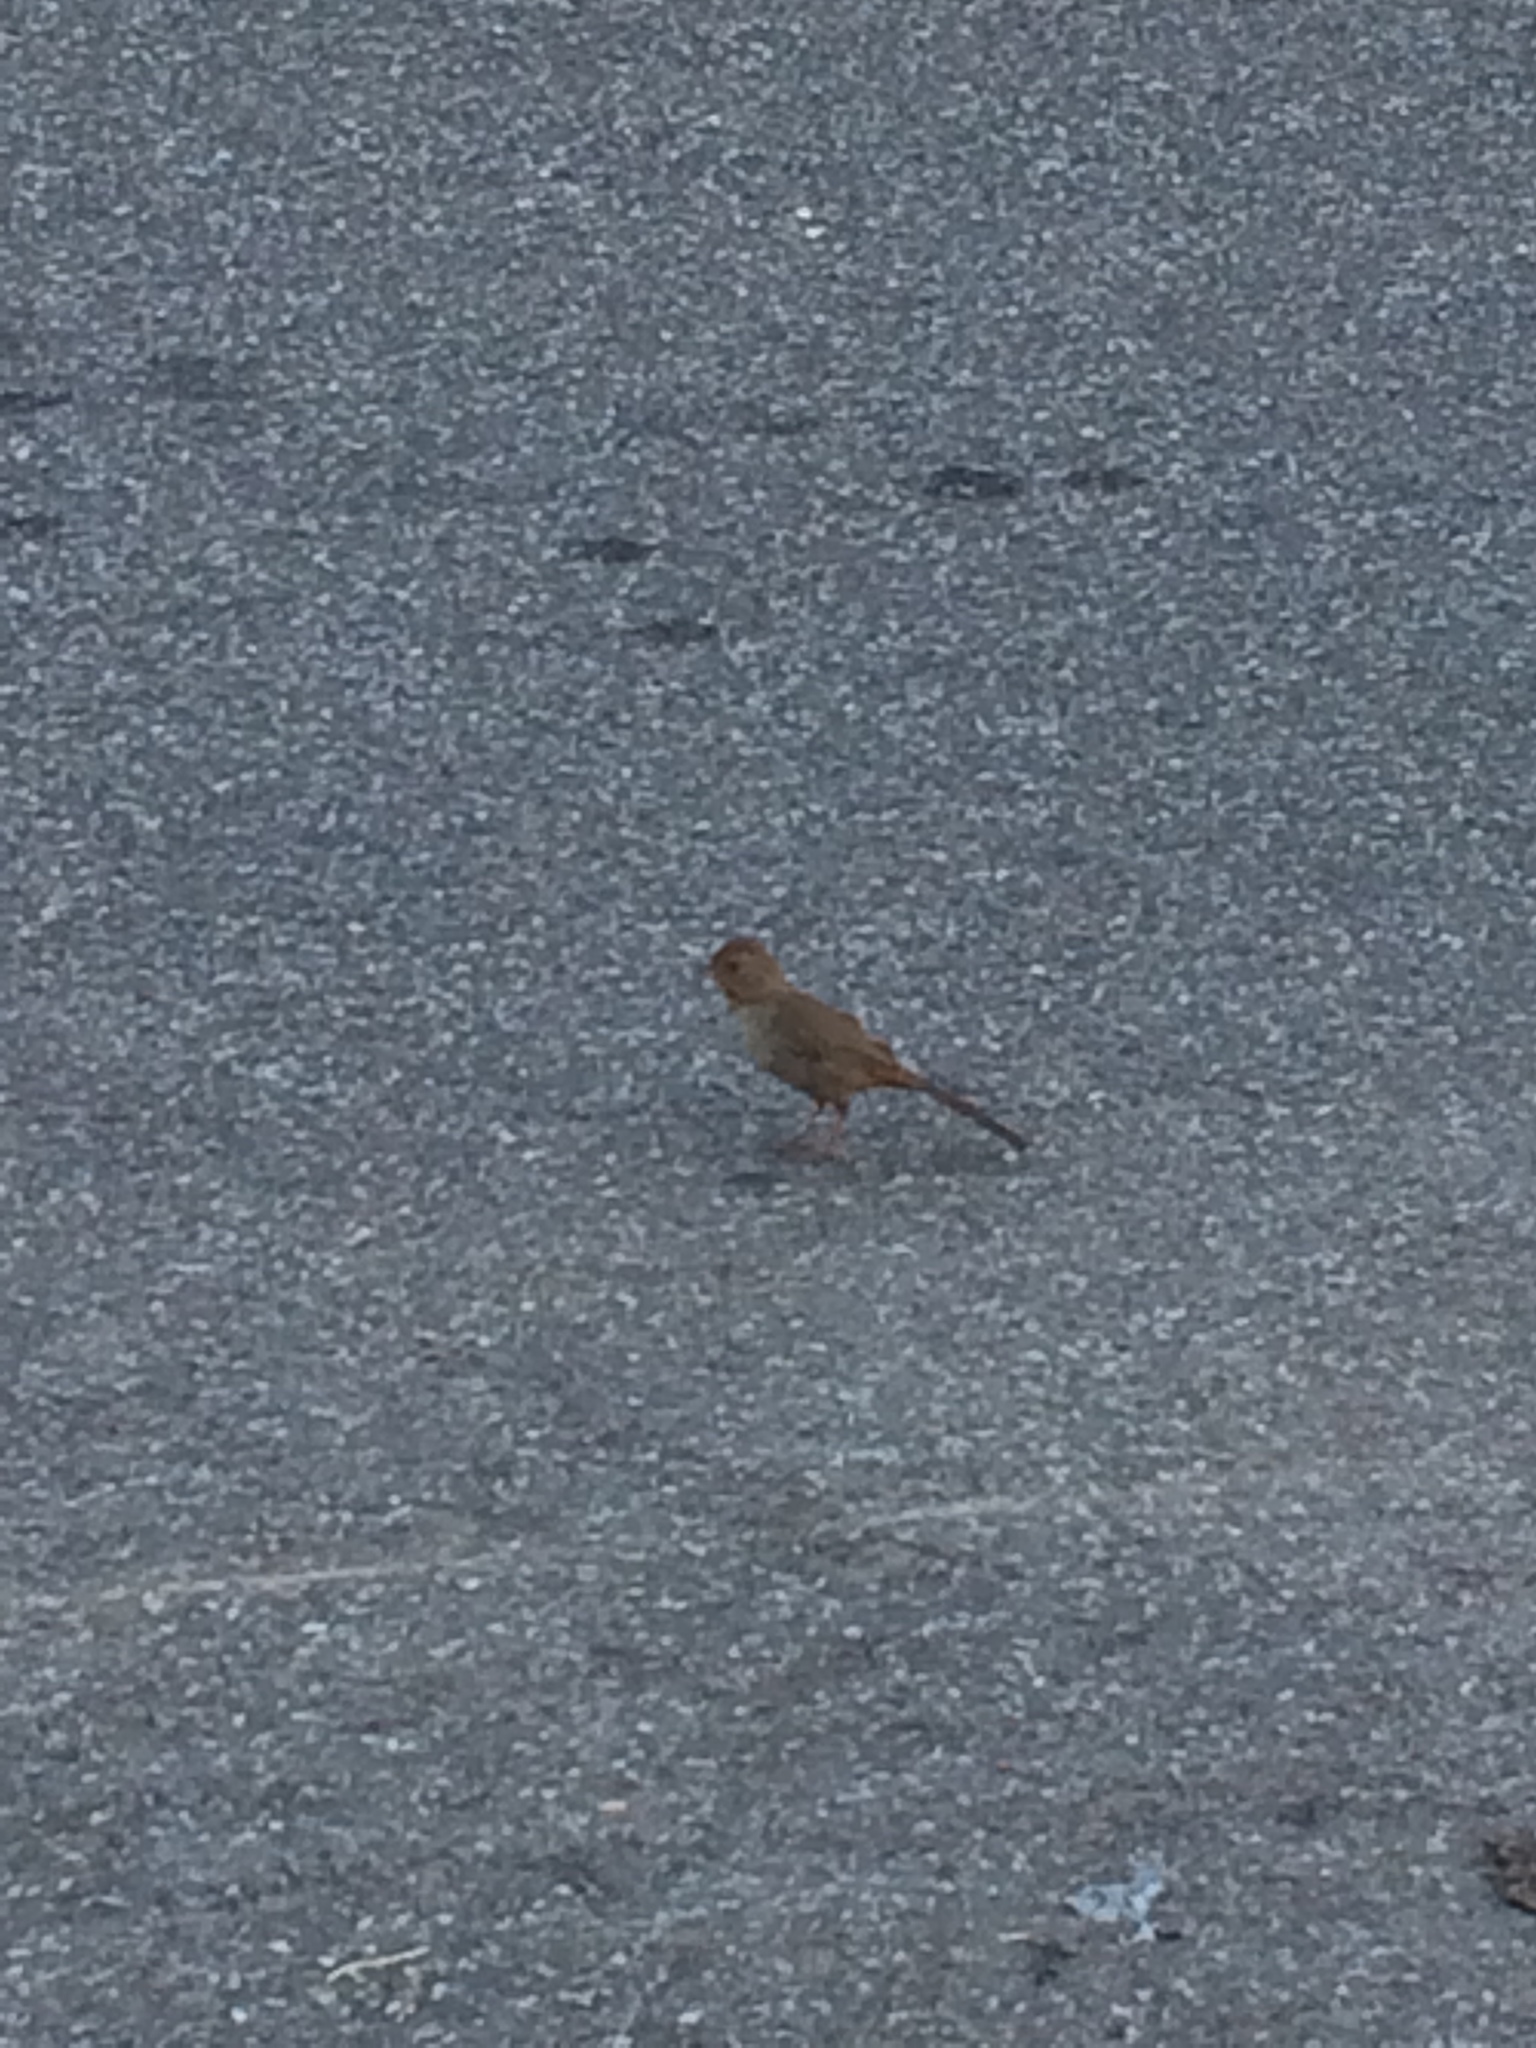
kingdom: Animalia
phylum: Chordata
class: Aves
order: Passeriformes
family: Passerellidae
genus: Melozone
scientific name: Melozone crissalis
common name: California towhee
